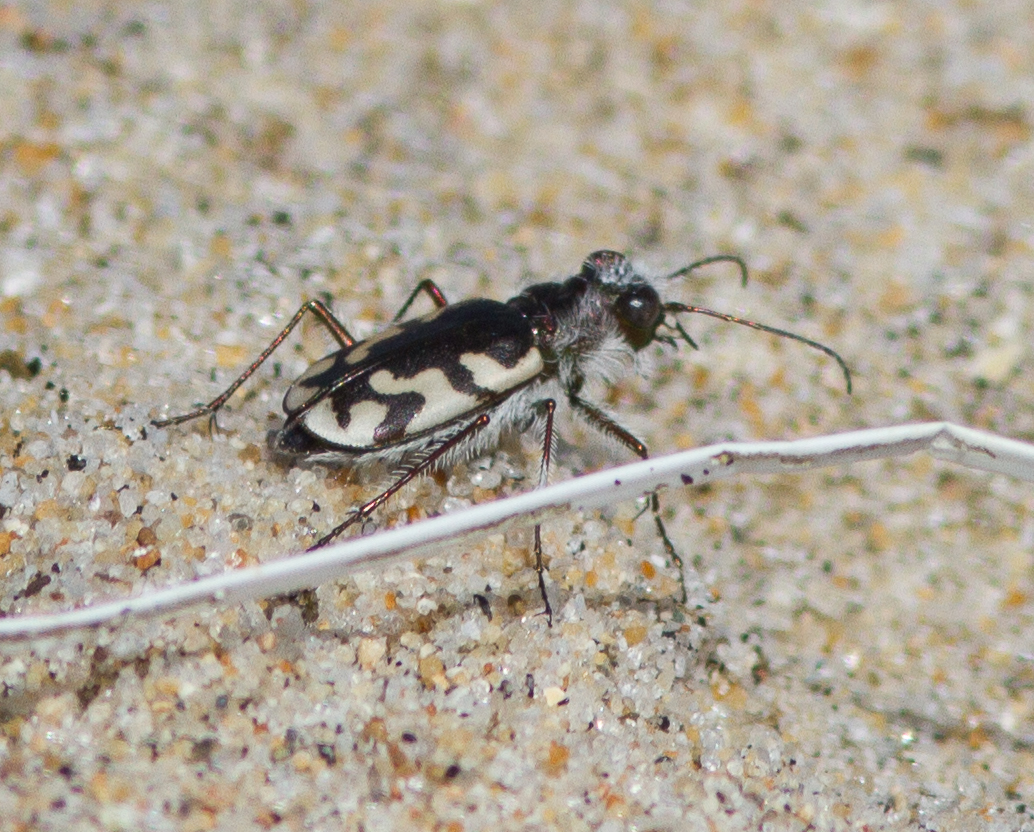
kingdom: Animalia
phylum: Arthropoda
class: Insecta
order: Coleoptera
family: Carabidae
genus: Cicindela
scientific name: Cicindela latesignata
